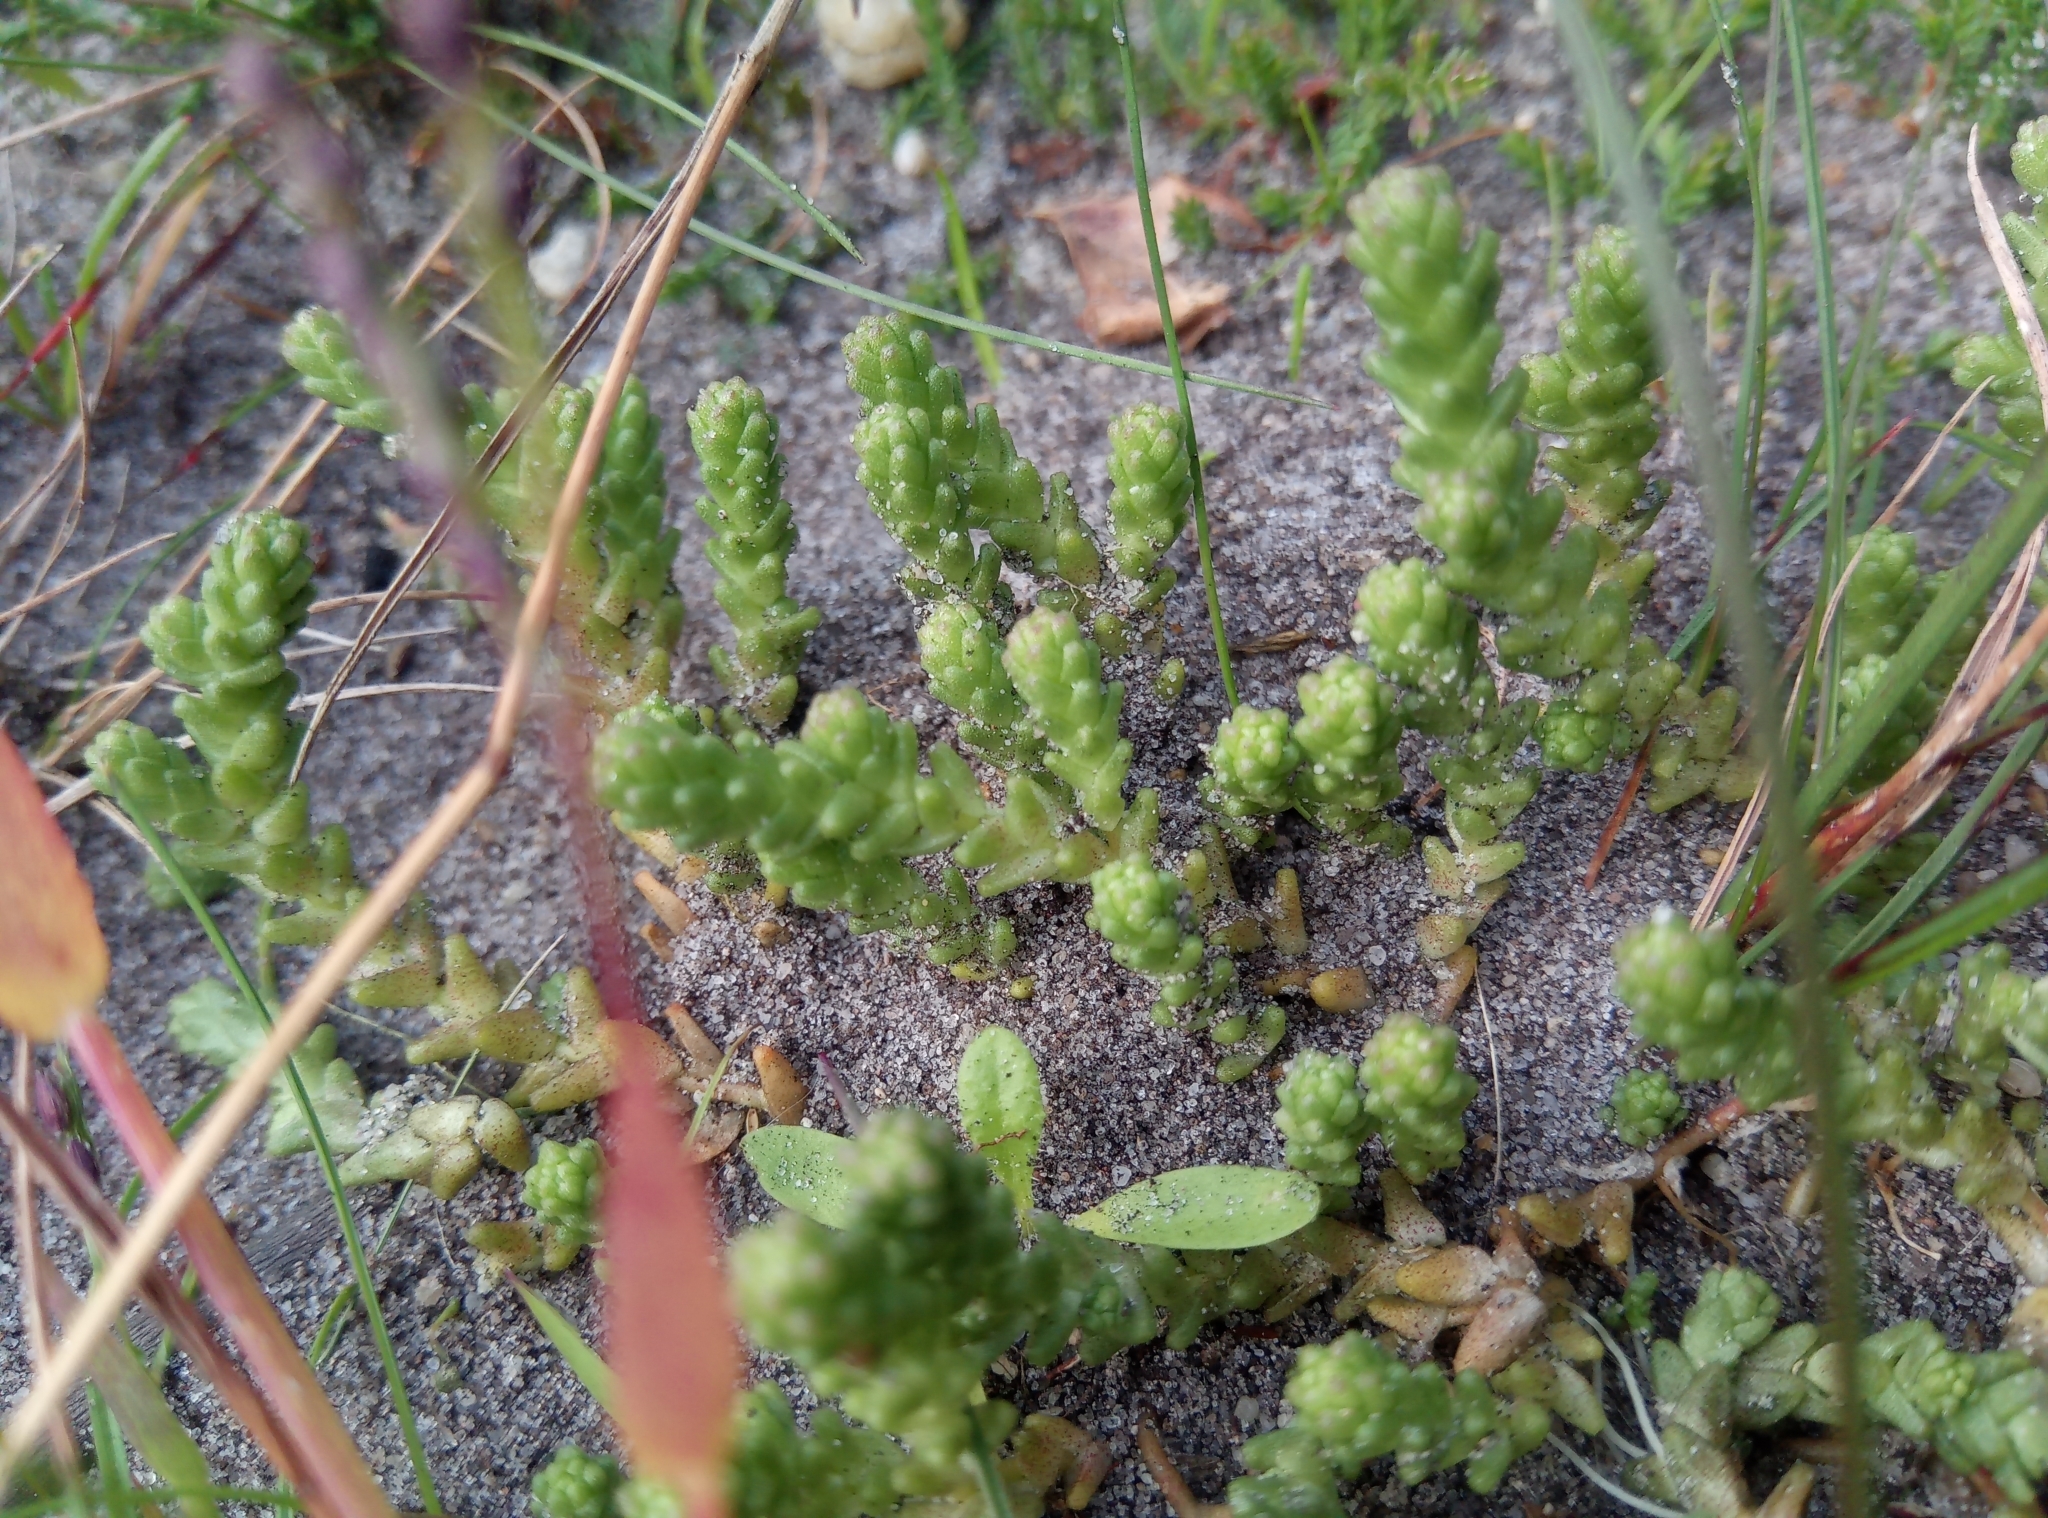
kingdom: Plantae
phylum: Tracheophyta
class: Magnoliopsida
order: Saxifragales
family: Crassulaceae
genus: Sedum
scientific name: Sedum acre
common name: Biting stonecrop
